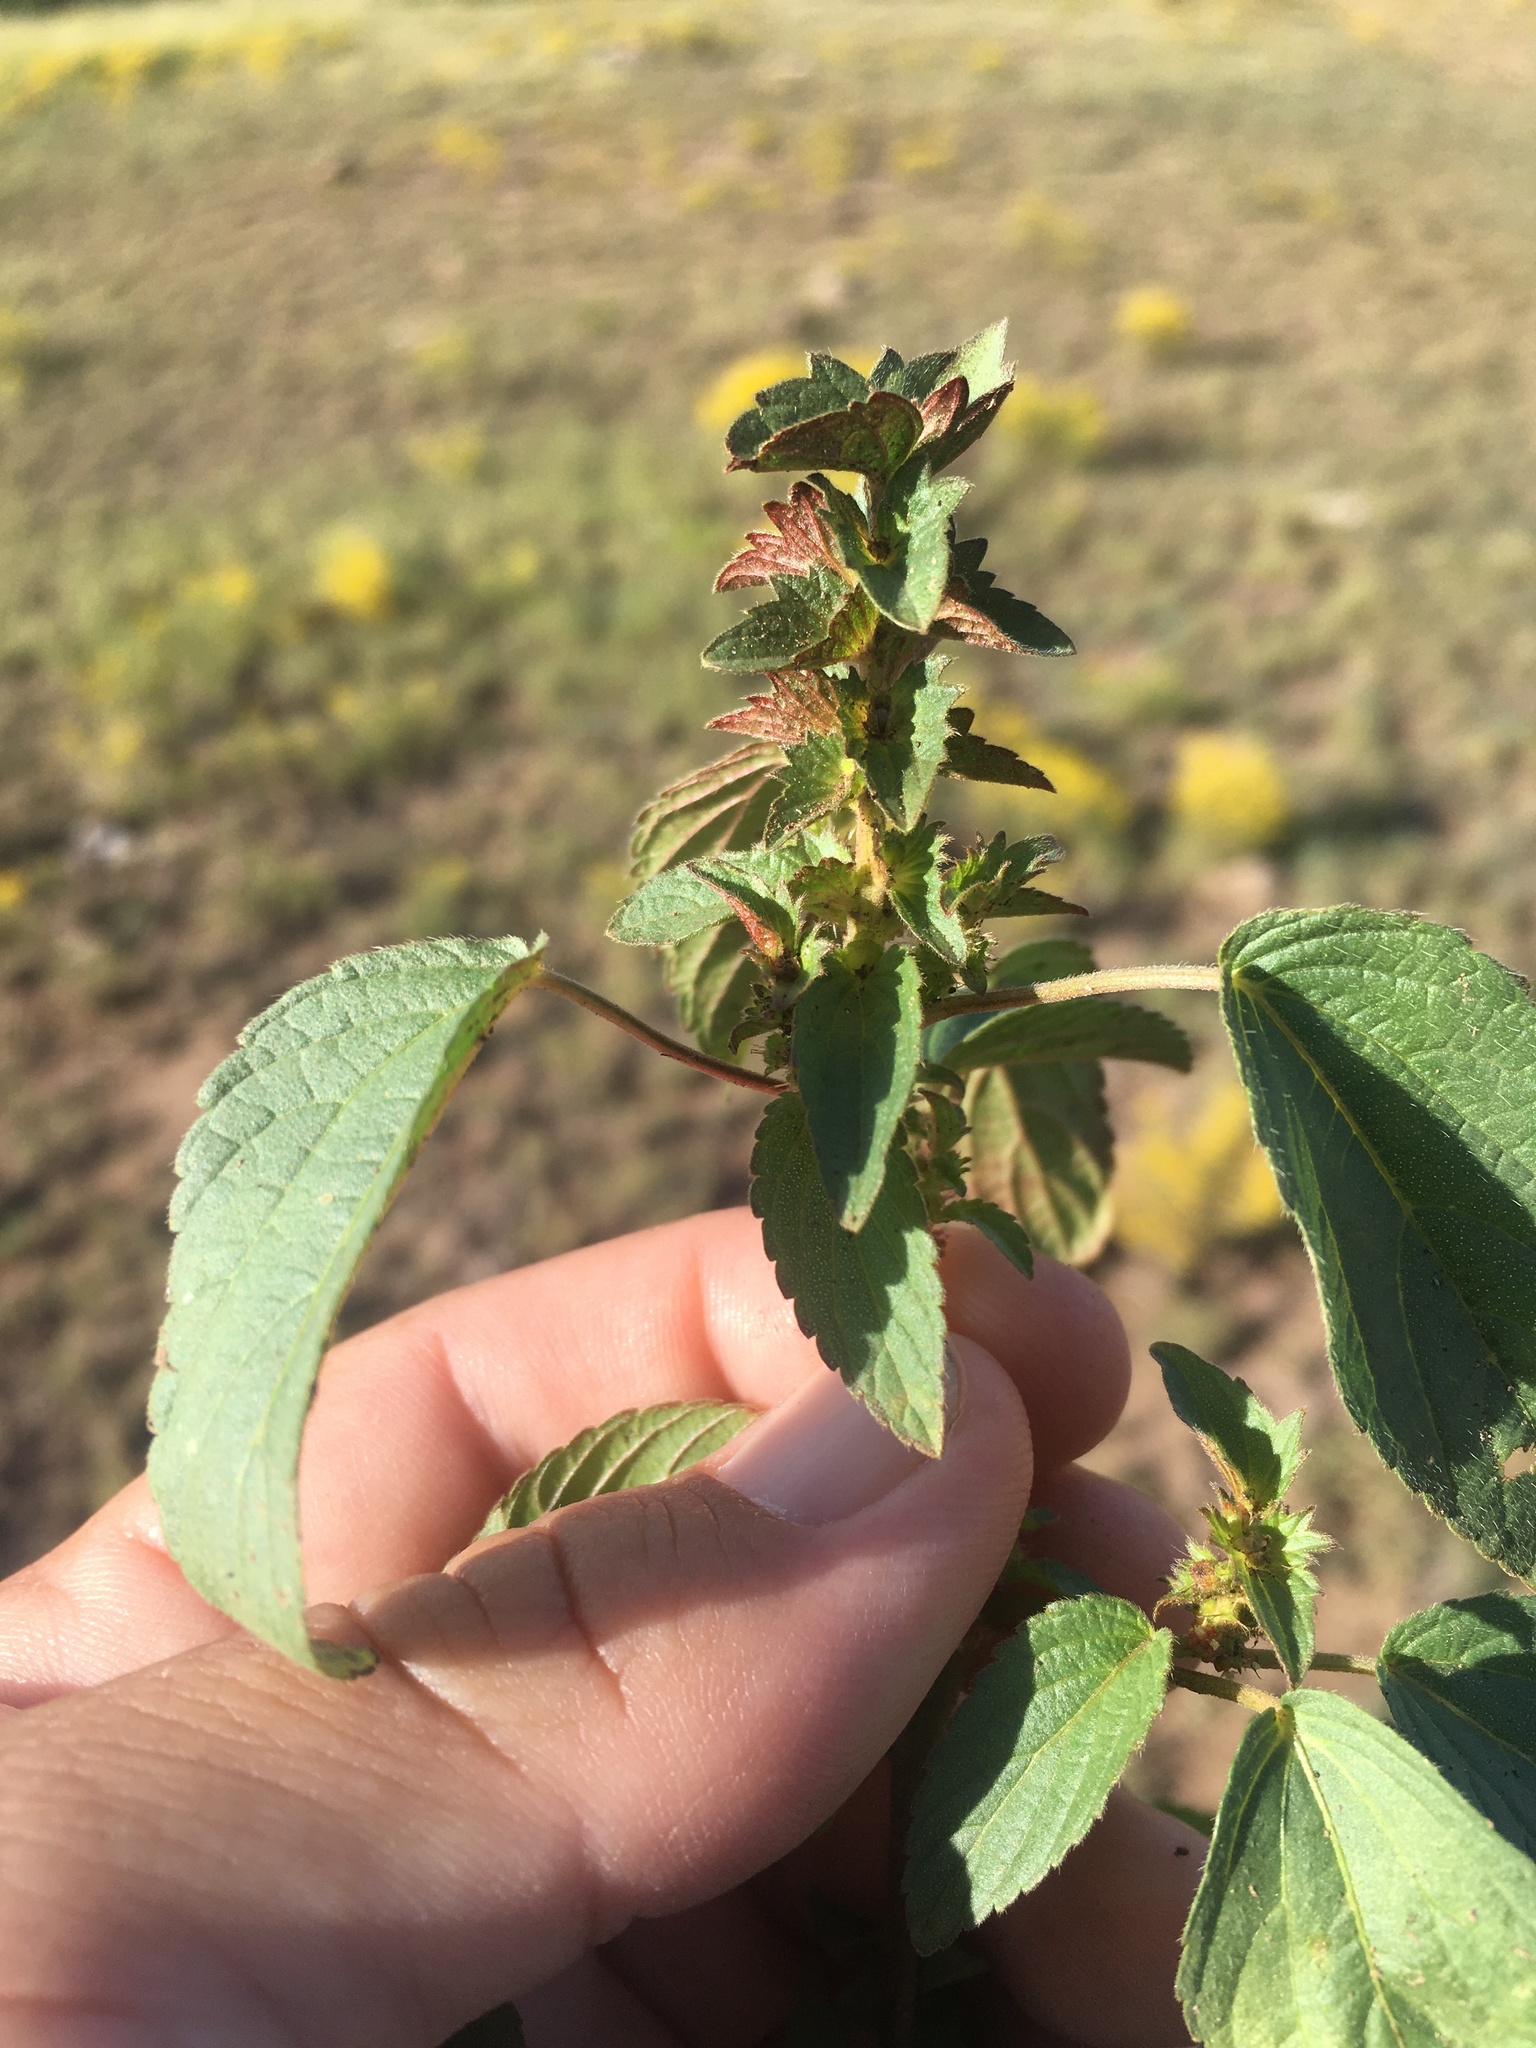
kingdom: Plantae
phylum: Tracheophyta
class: Magnoliopsida
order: Malpighiales
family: Euphorbiaceae
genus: Acalypha
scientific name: Acalypha neomexicana
